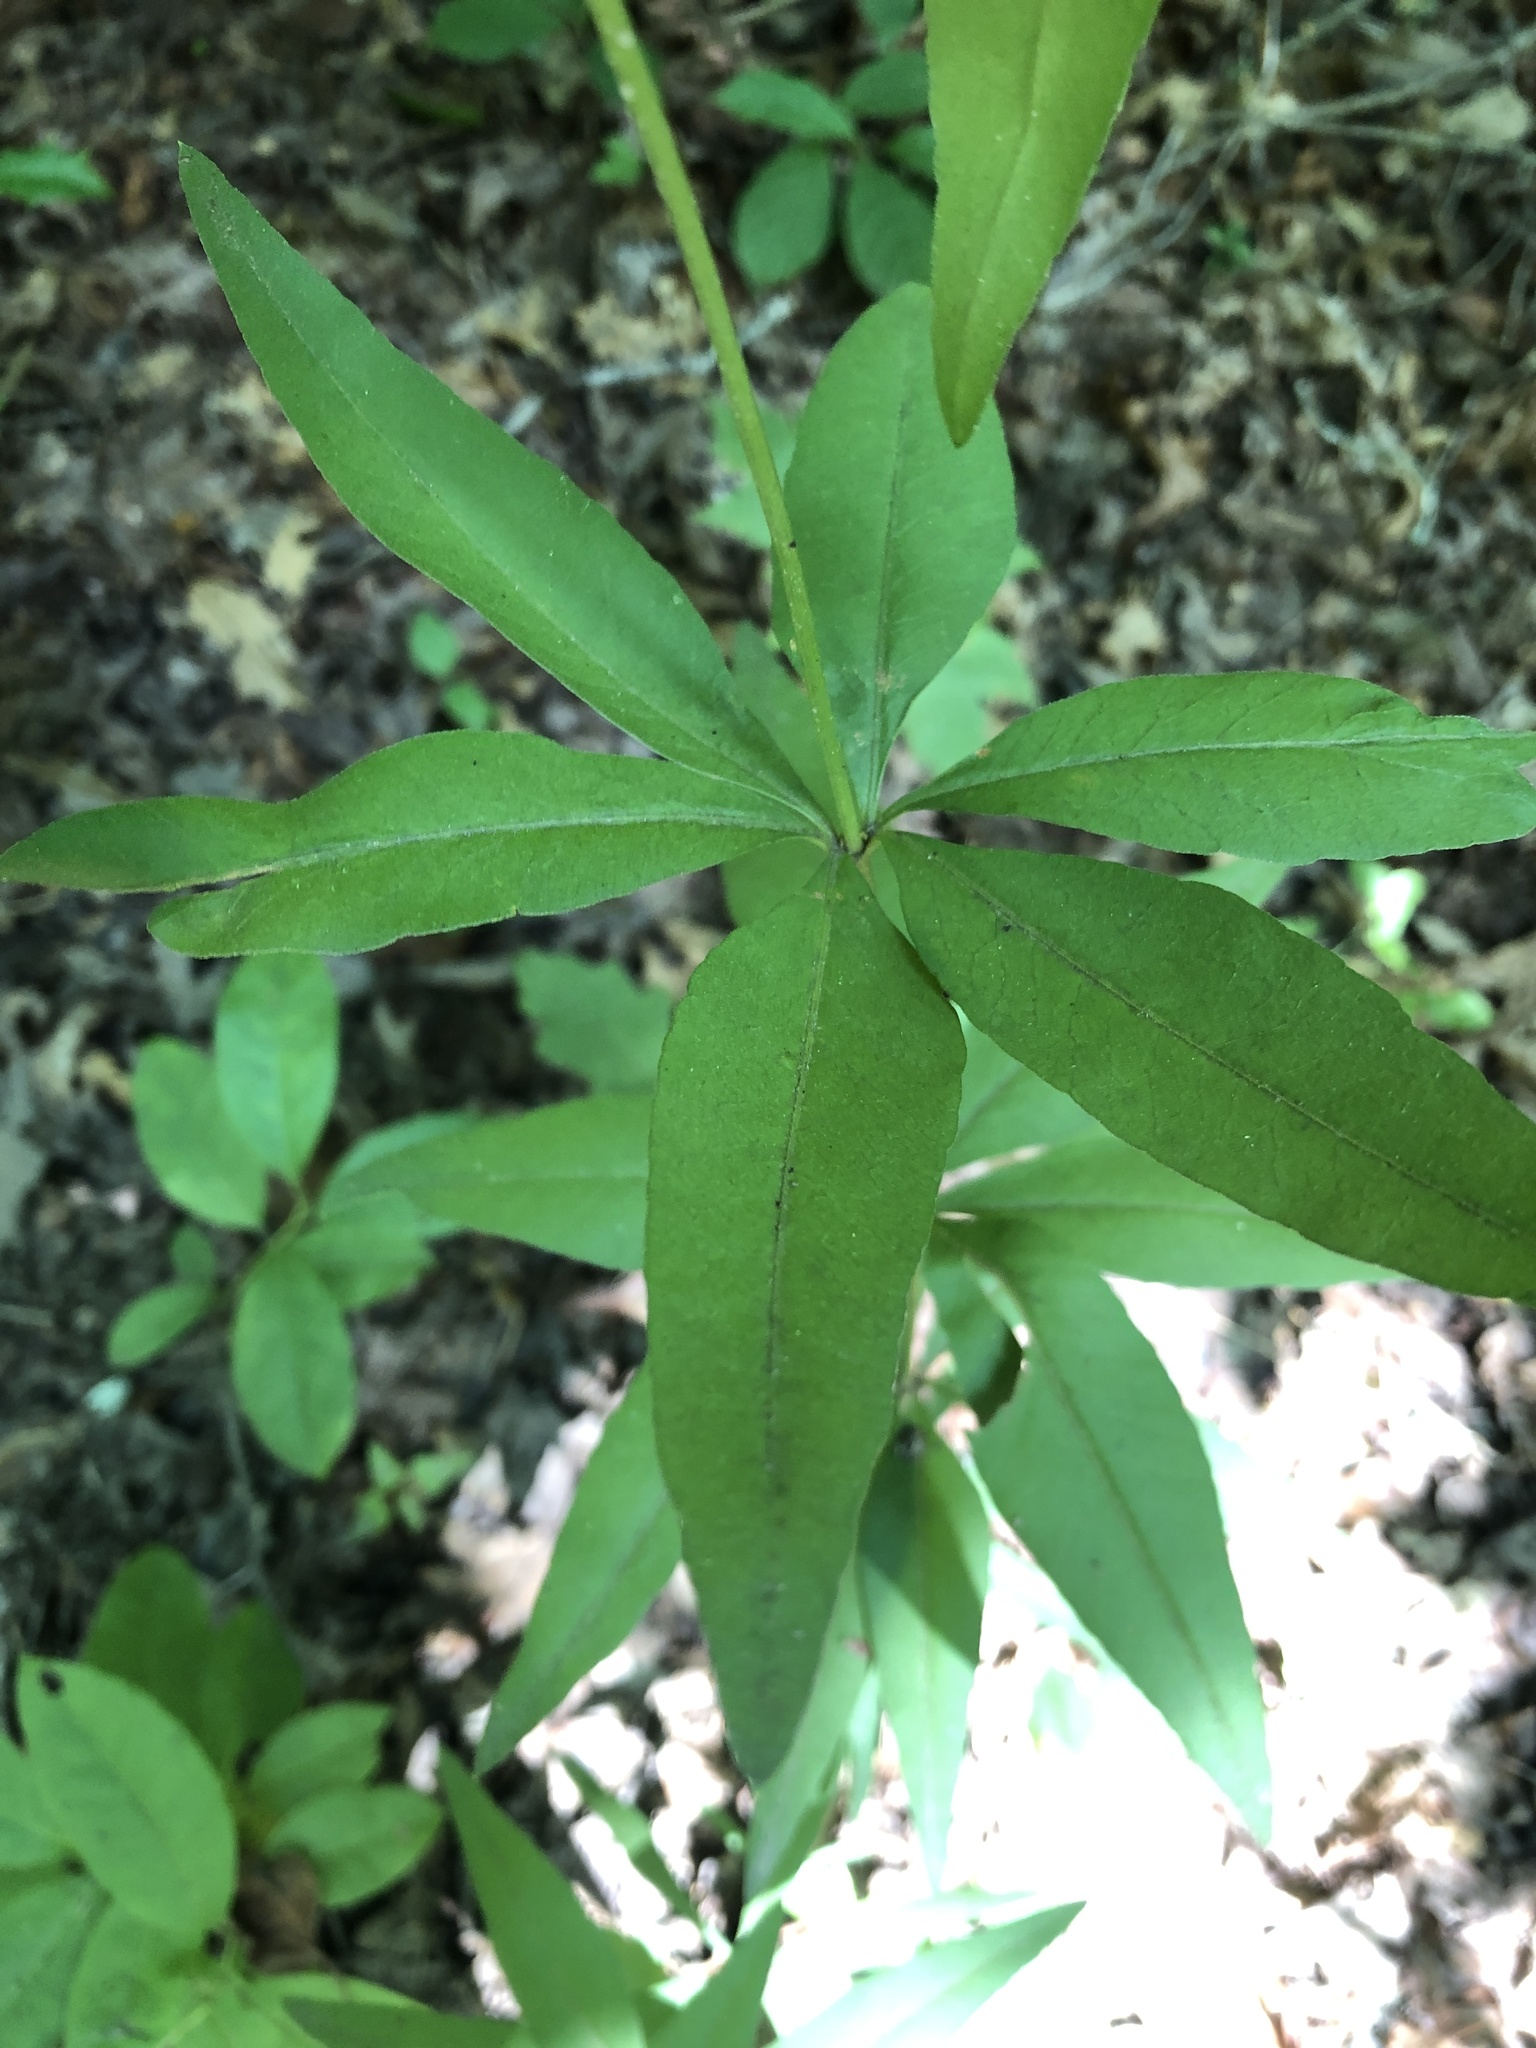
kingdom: Plantae
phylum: Tracheophyta
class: Magnoliopsida
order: Asterales
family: Asteraceae
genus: Coreopsis
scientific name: Coreopsis major
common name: Forest tickseed
